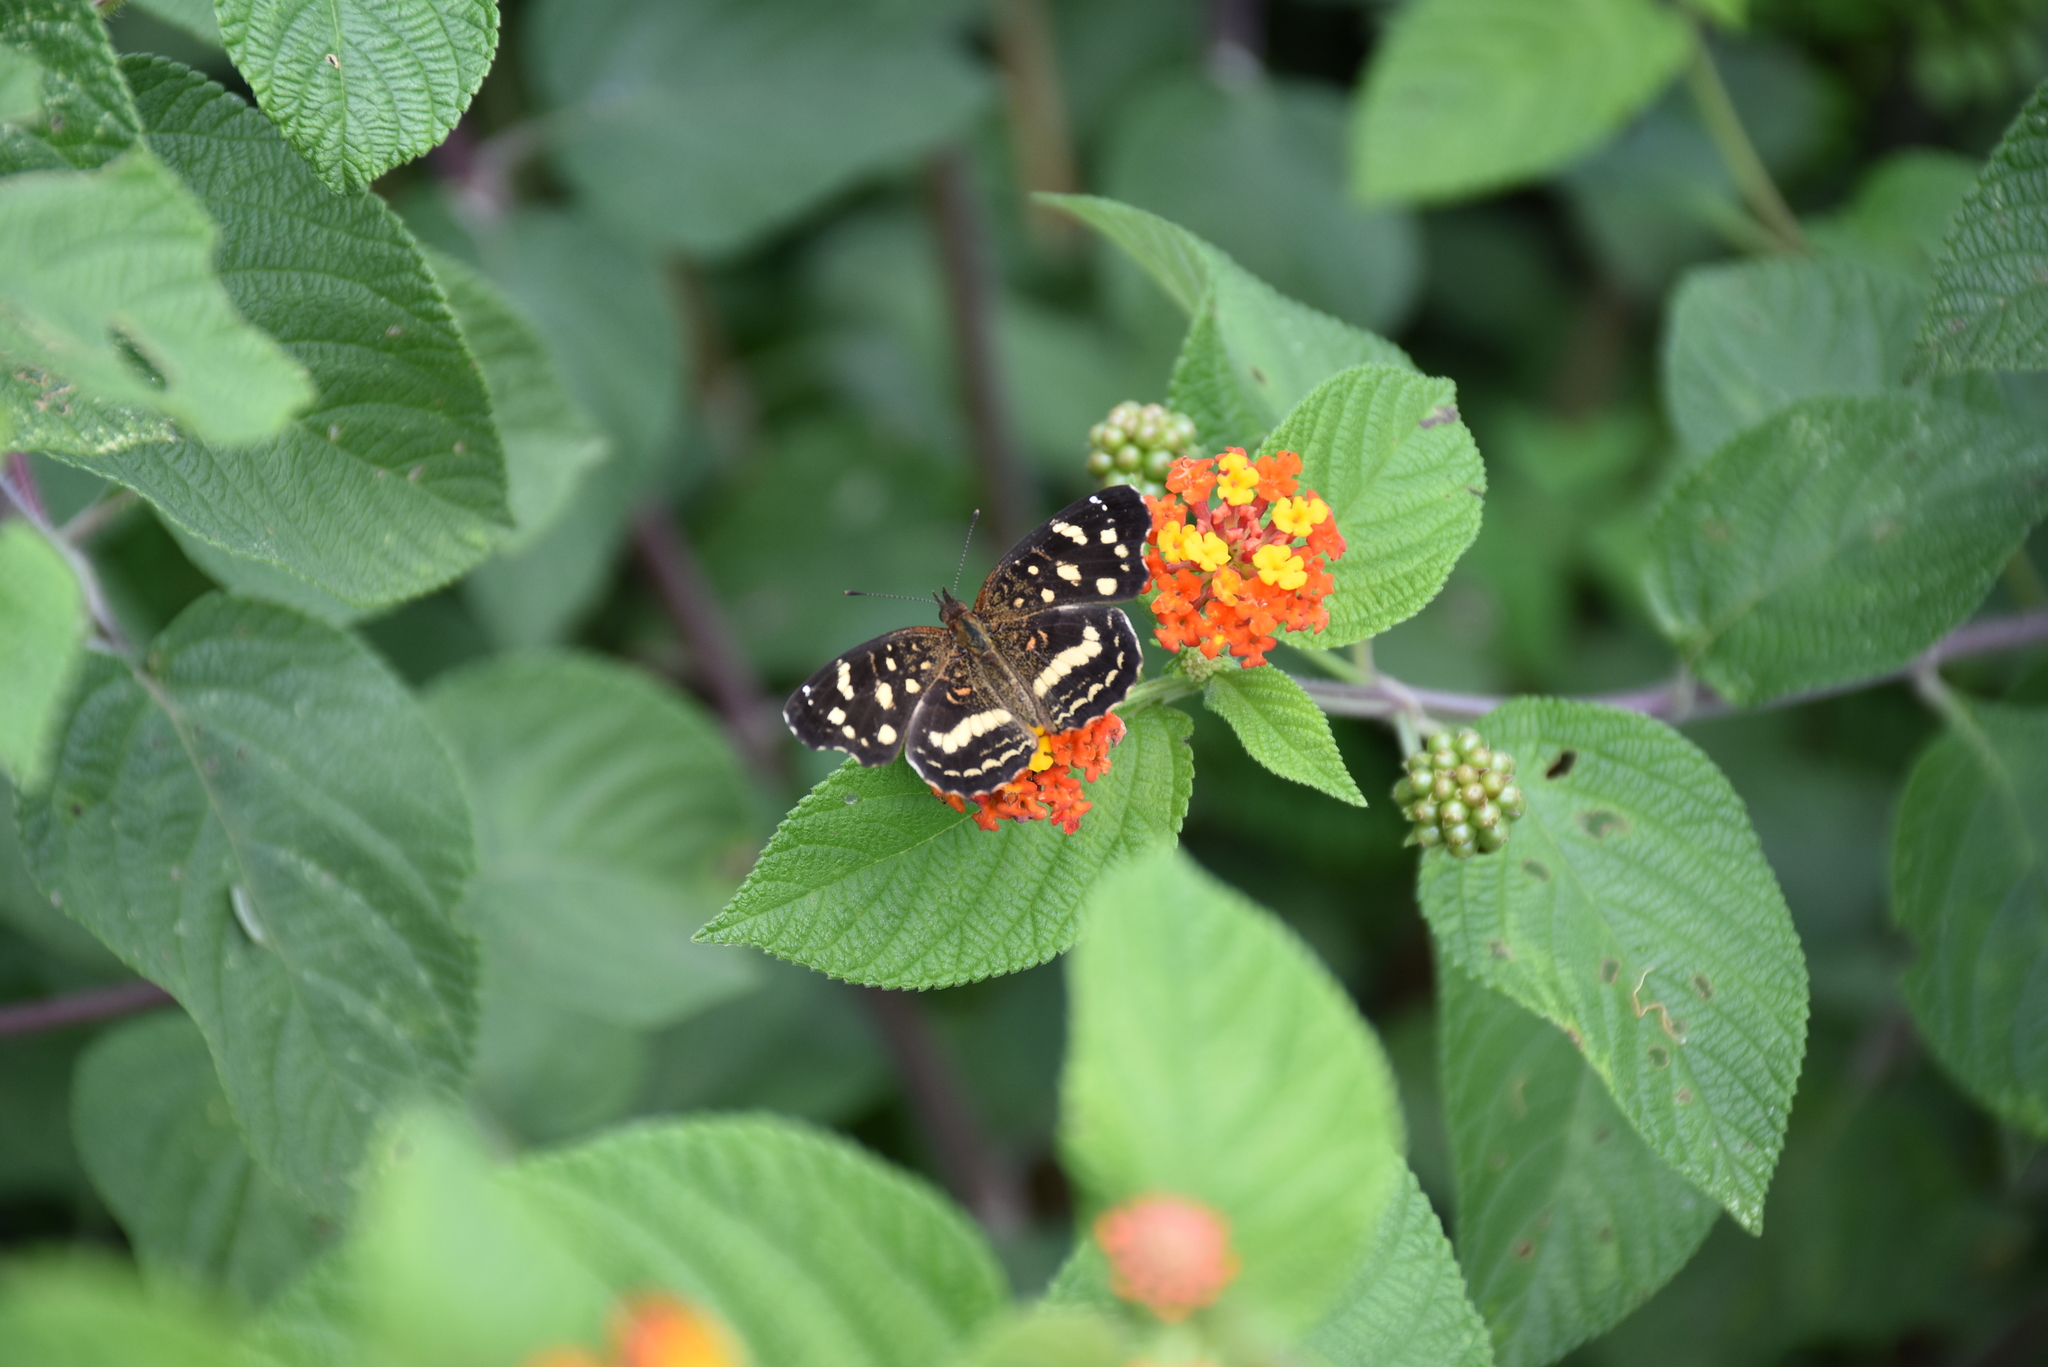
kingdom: Animalia
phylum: Arthropoda
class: Insecta
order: Lepidoptera
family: Nymphalidae
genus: Anthanassa
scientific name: Anthanassa drusilla
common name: Orange-patched crescent
